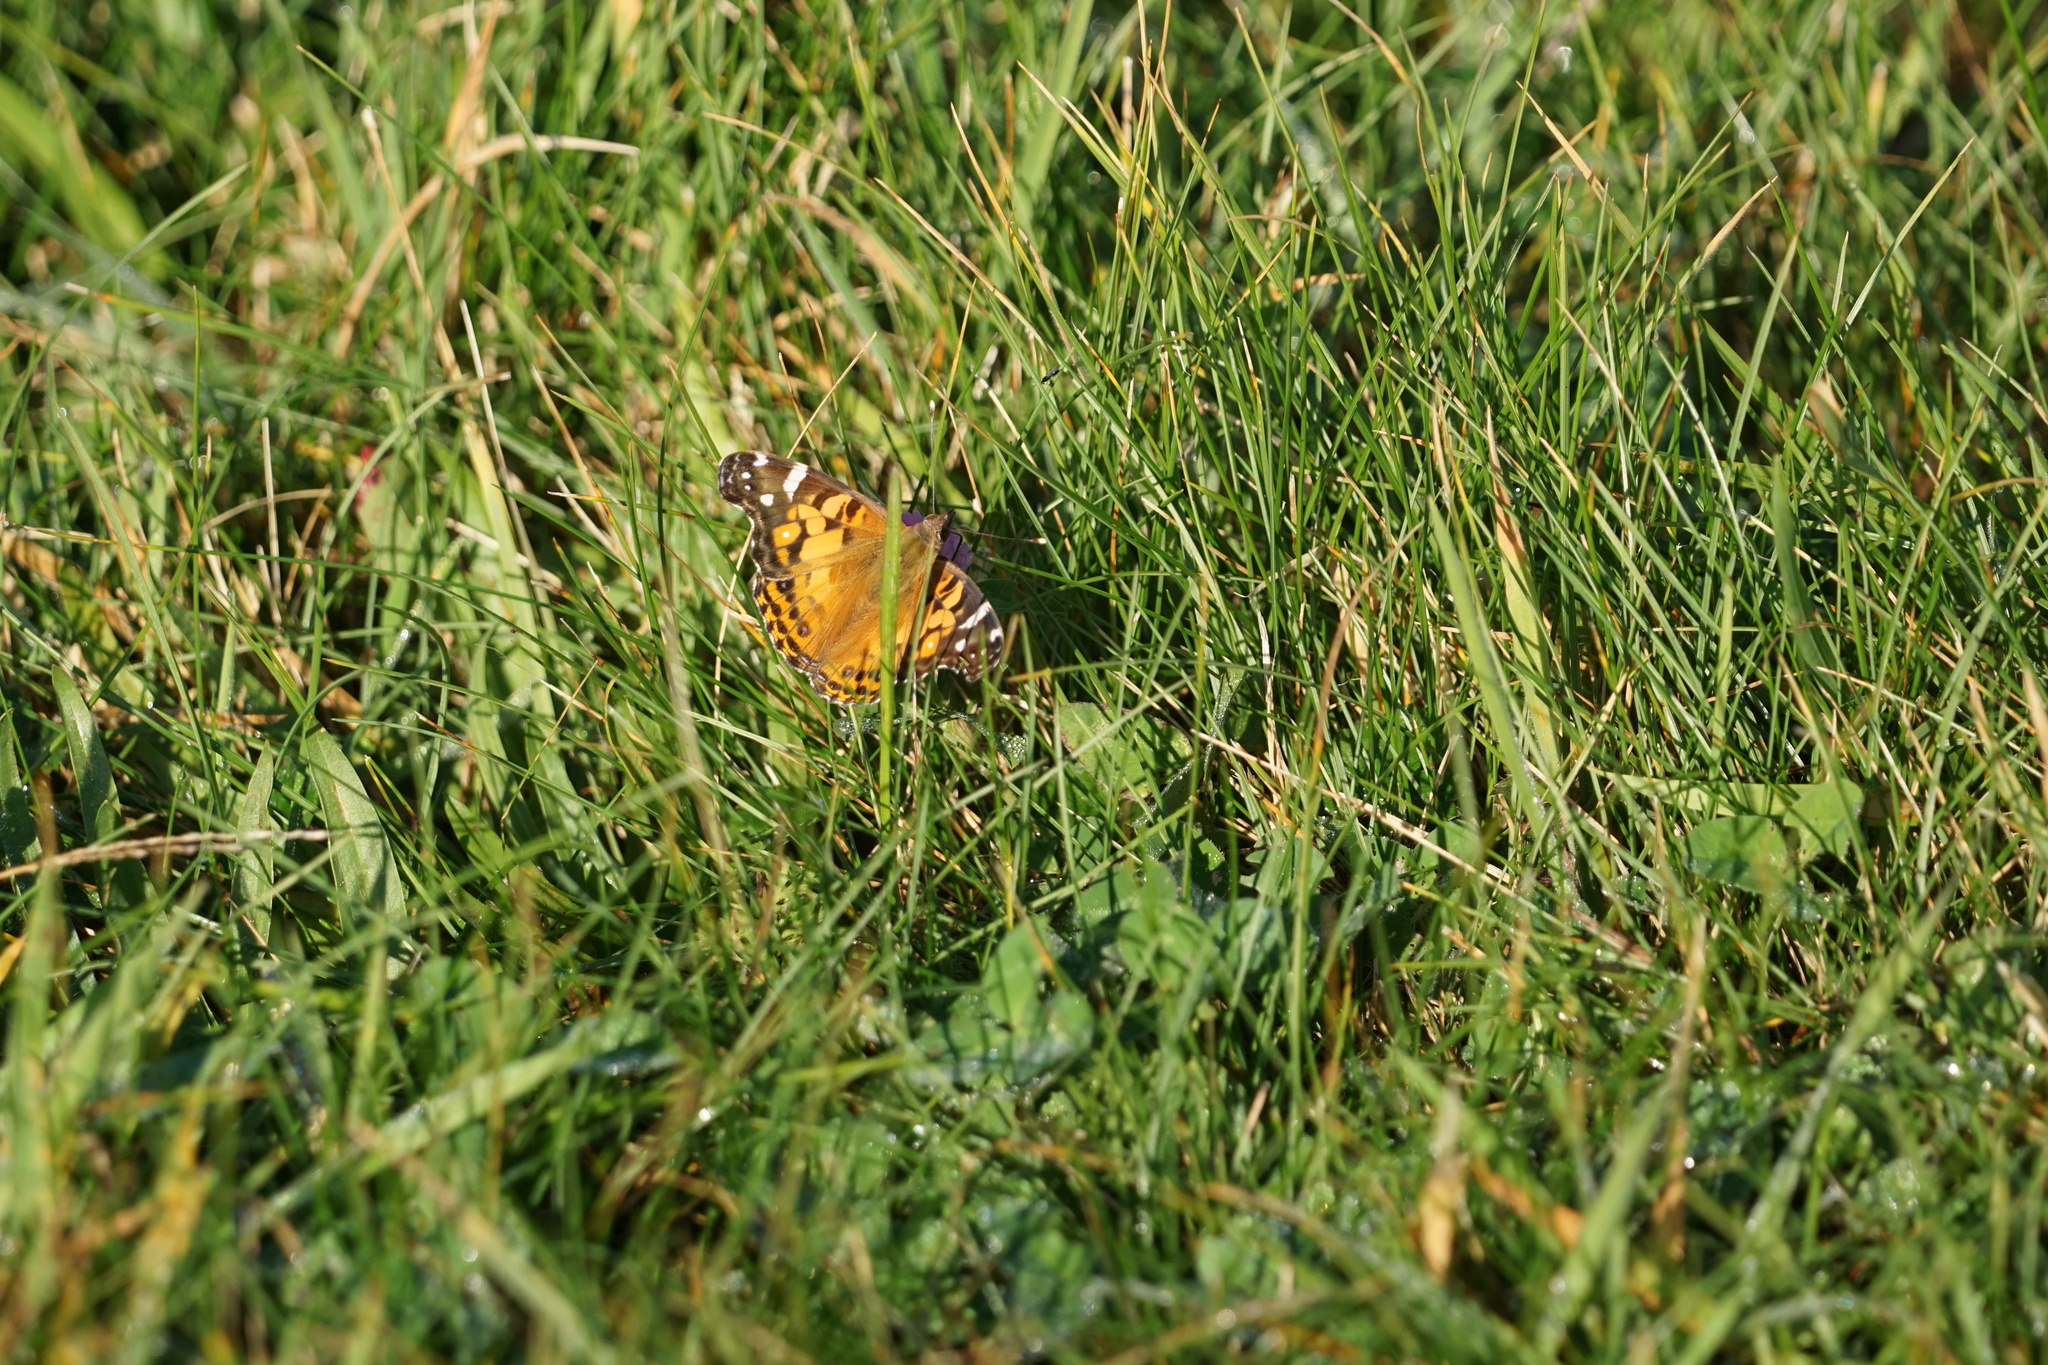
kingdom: Animalia
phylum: Arthropoda
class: Insecta
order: Lepidoptera
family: Nymphalidae
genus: Vanessa
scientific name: Vanessa virginiensis
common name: American lady
